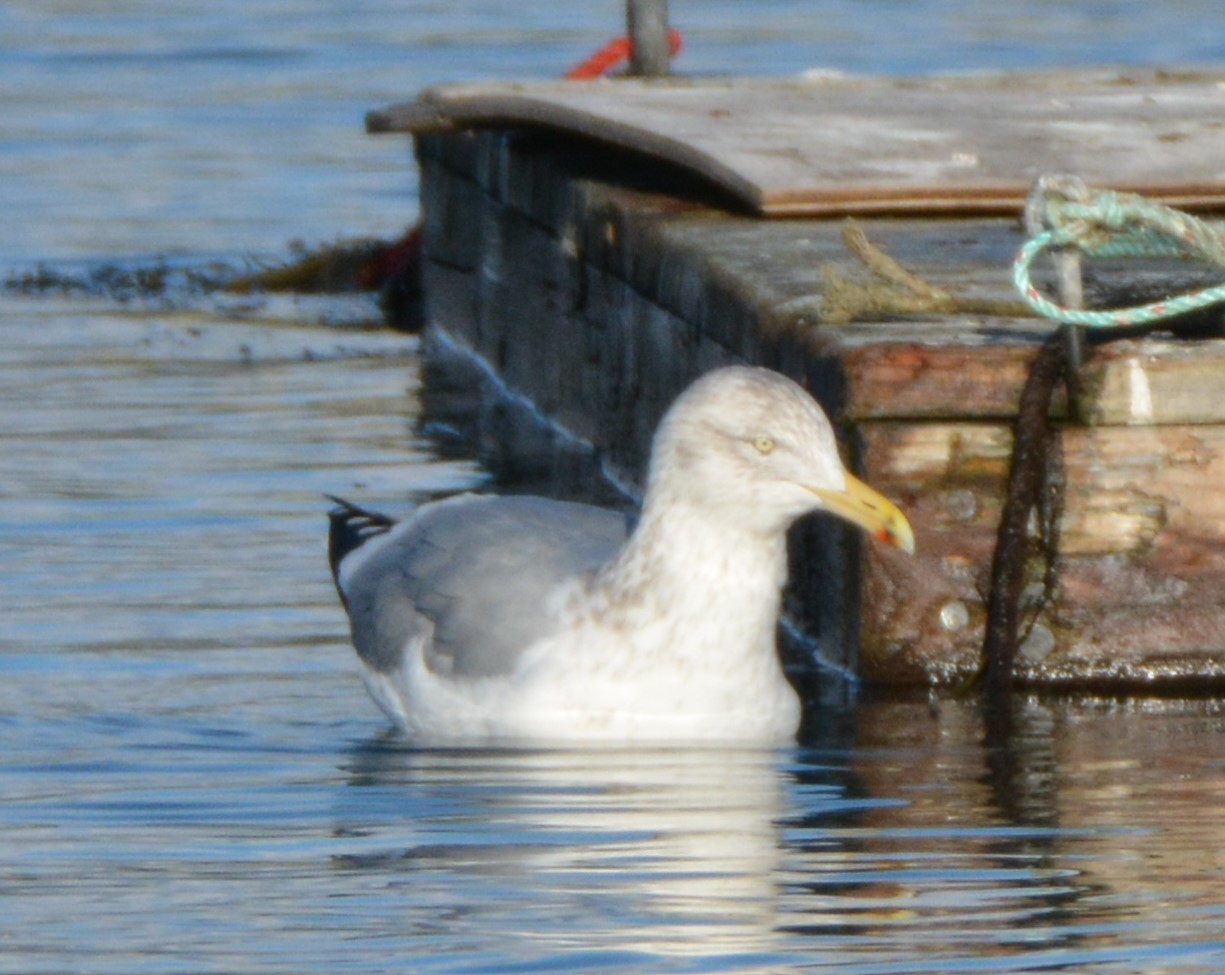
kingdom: Animalia
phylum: Chordata
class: Aves
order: Charadriiformes
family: Laridae
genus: Larus
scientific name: Larus argentatus
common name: Herring gull
